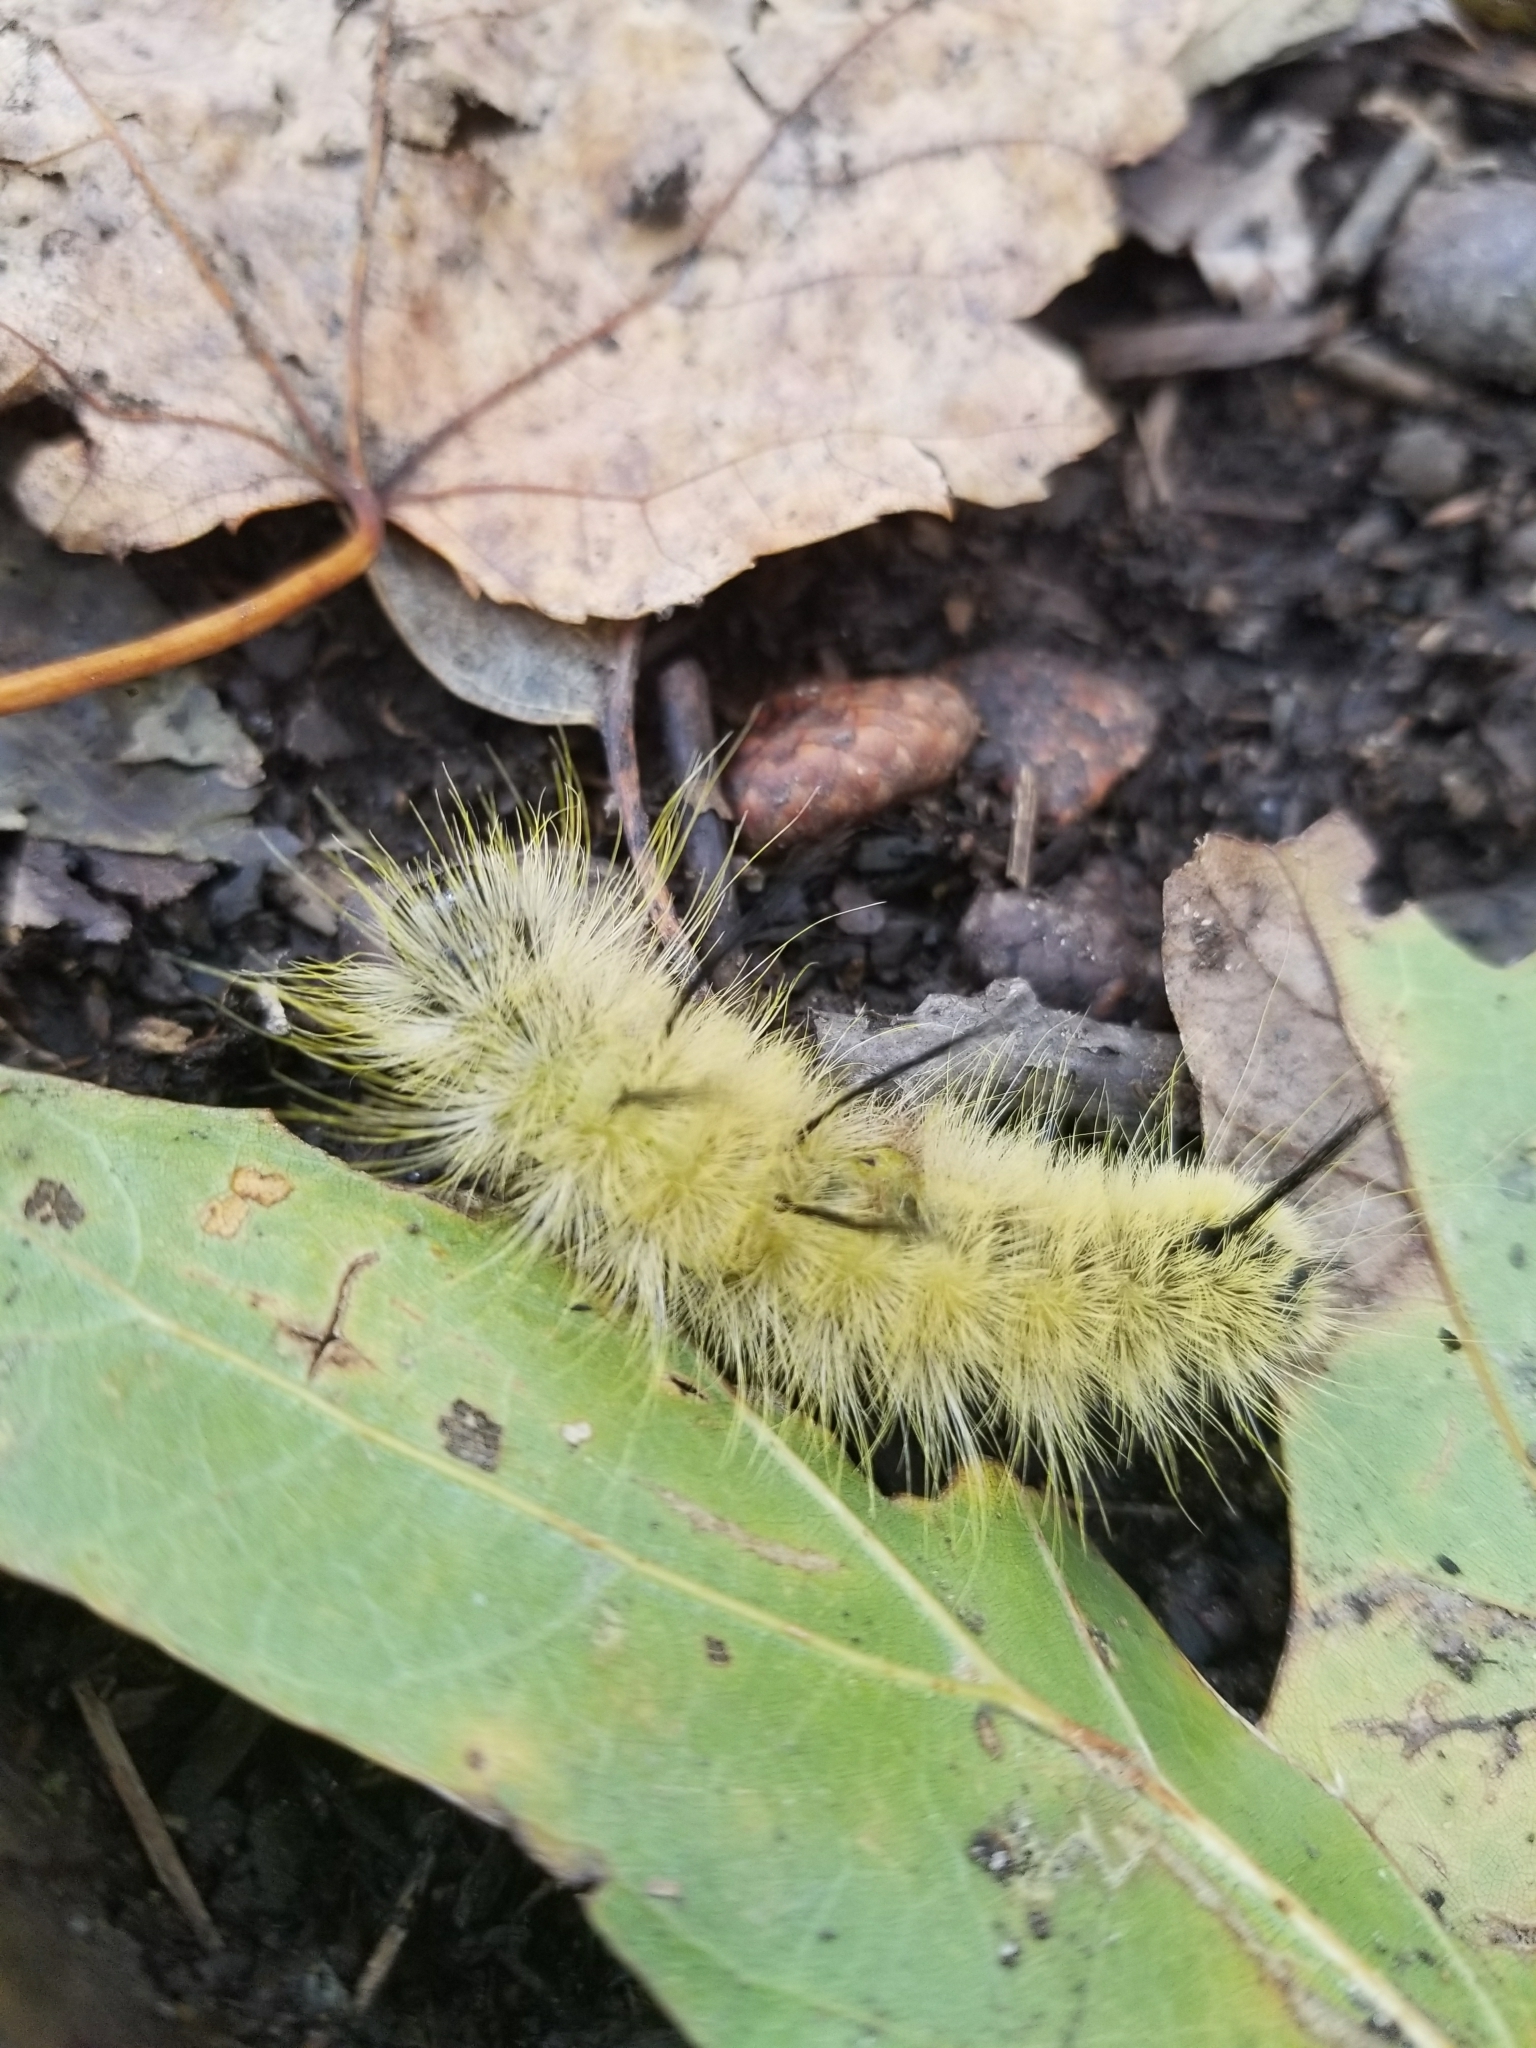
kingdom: Animalia
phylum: Arthropoda
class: Insecta
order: Lepidoptera
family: Noctuidae
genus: Acronicta
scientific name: Acronicta americana
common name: American dagger
